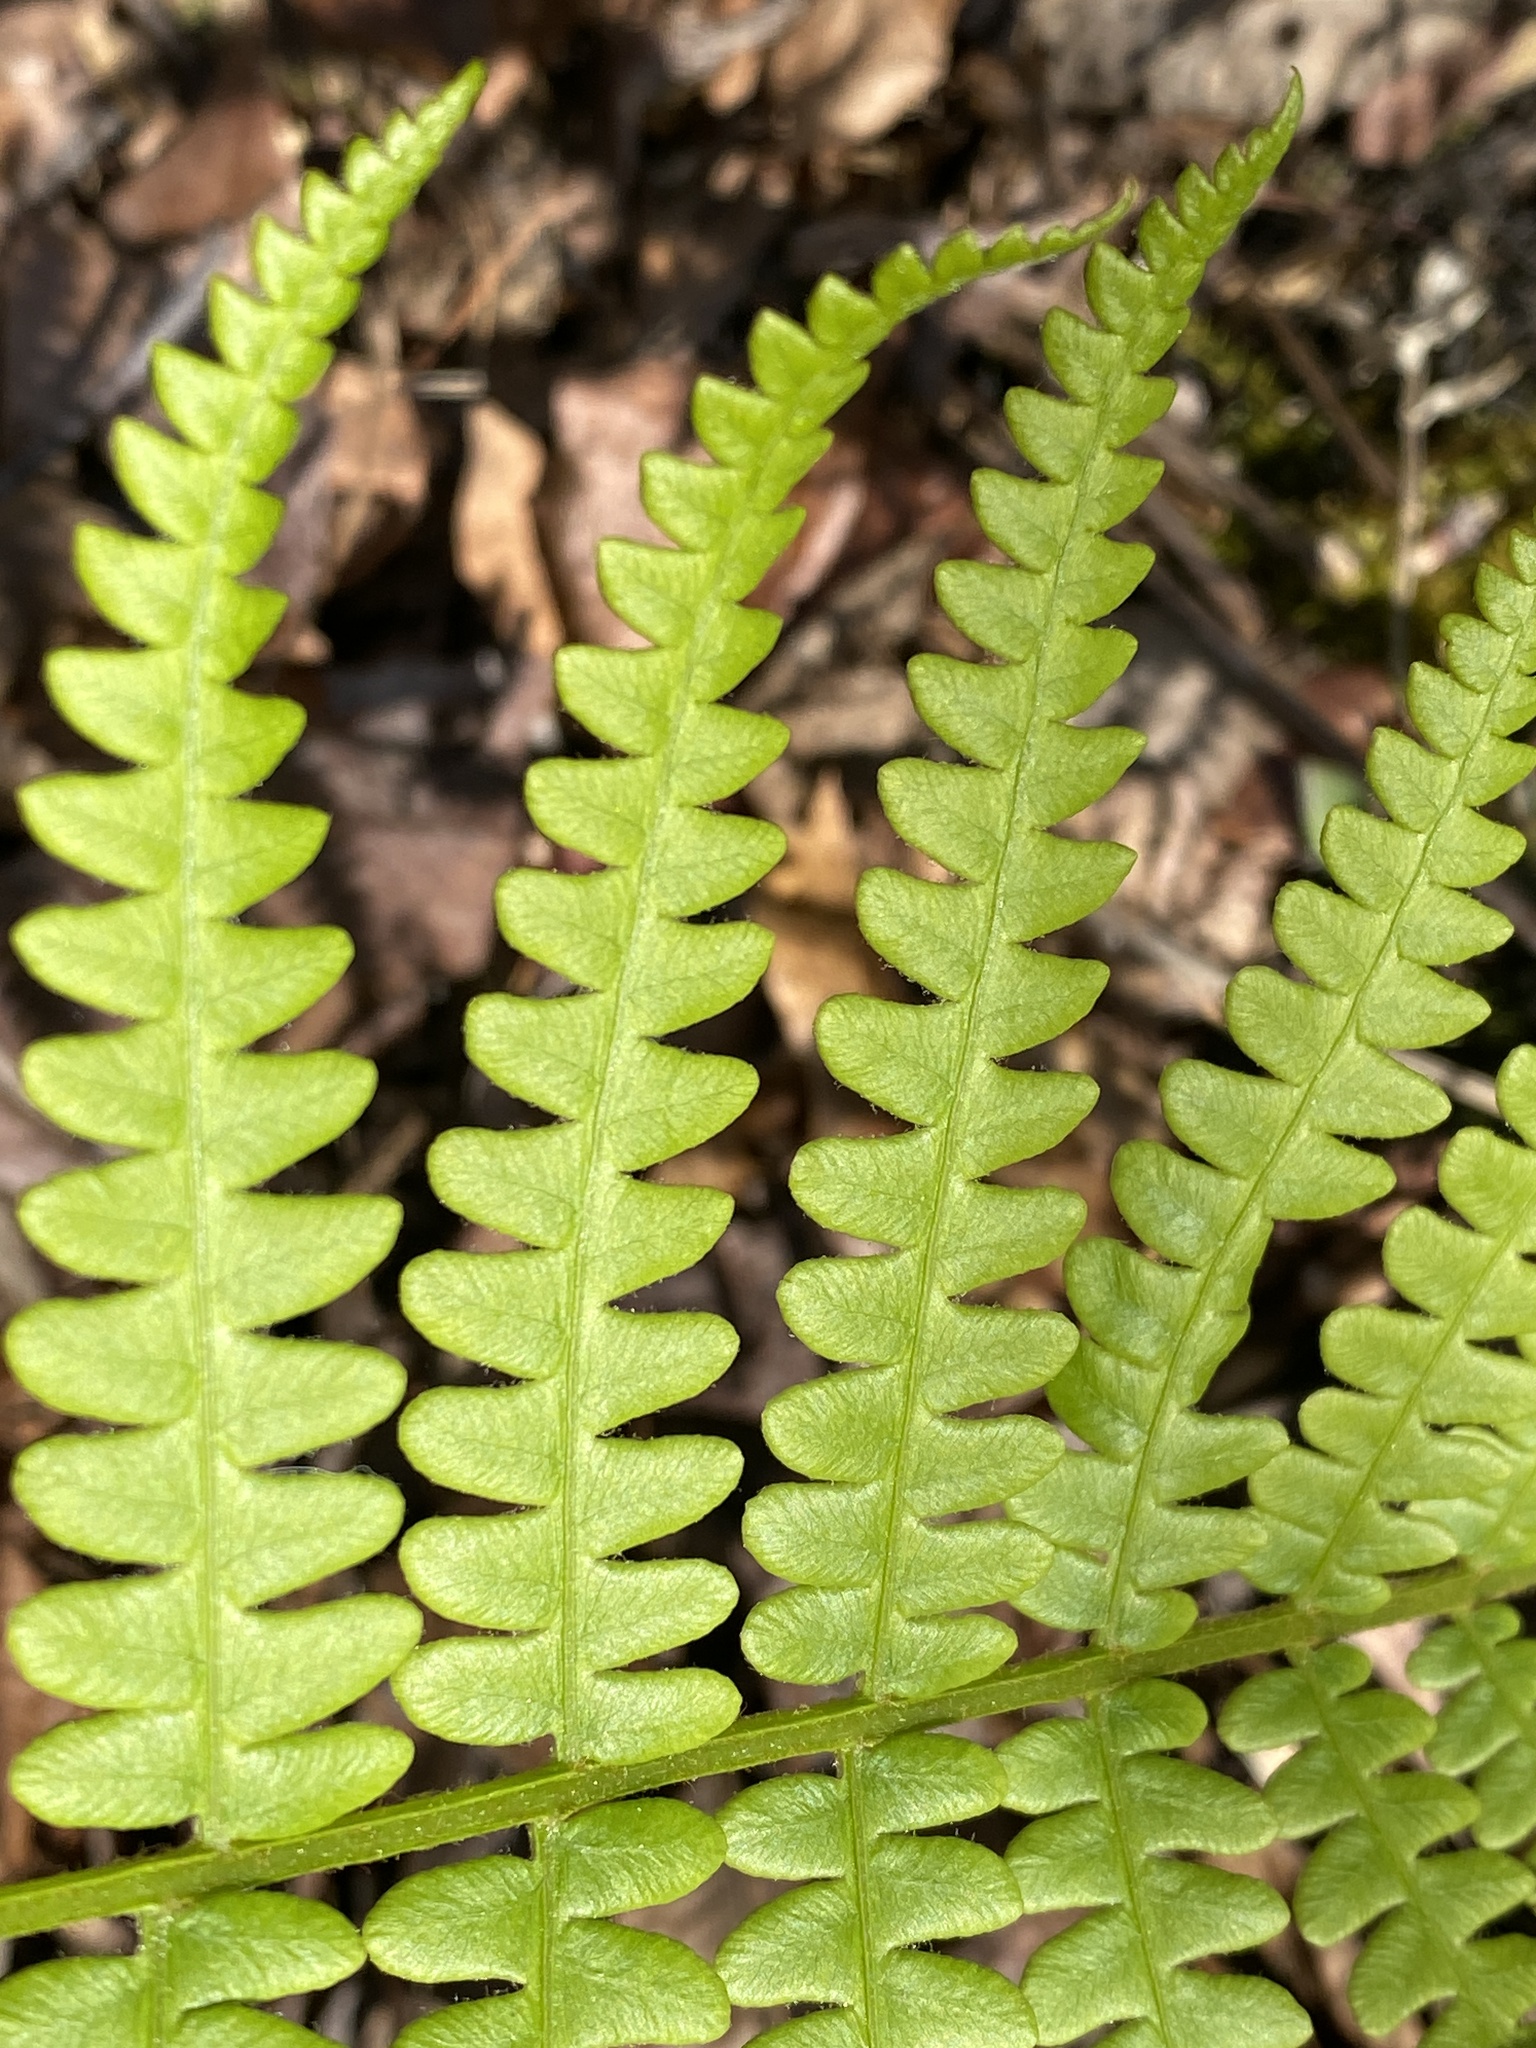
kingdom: Plantae
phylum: Tracheophyta
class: Polypodiopsida
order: Osmundales
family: Osmundaceae
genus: Osmundastrum
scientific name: Osmundastrum cinnamomeum
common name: Cinnamon fern
